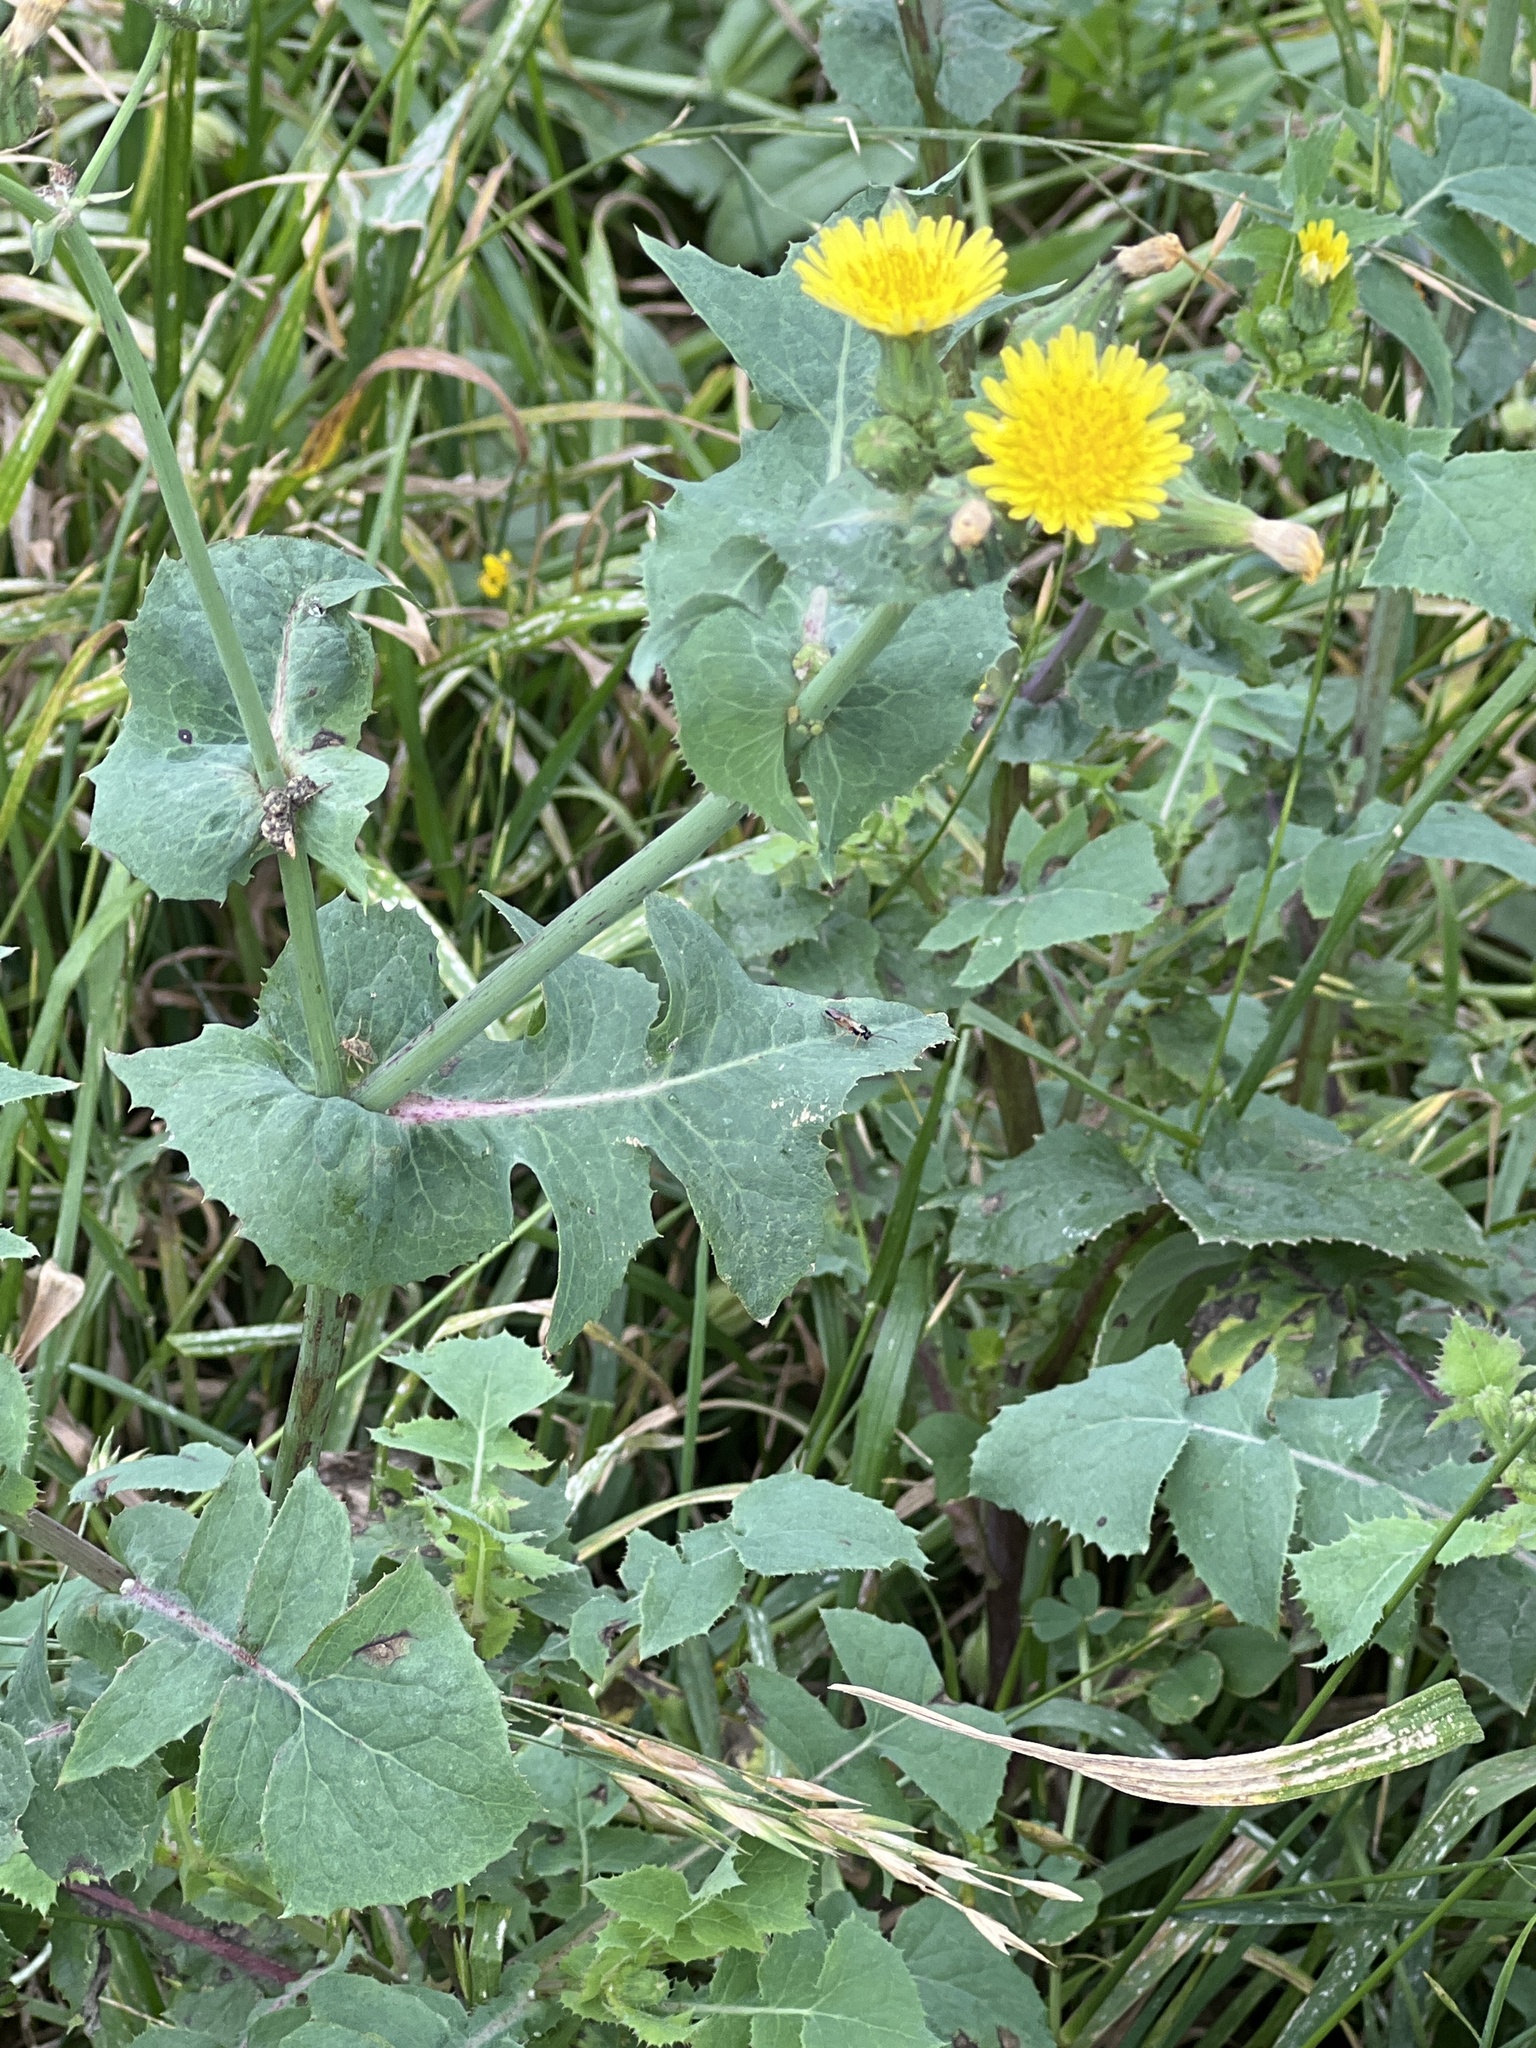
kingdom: Plantae
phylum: Tracheophyta
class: Magnoliopsida
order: Asterales
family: Asteraceae
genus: Sonchus
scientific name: Sonchus oleraceus
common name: Common sowthistle
